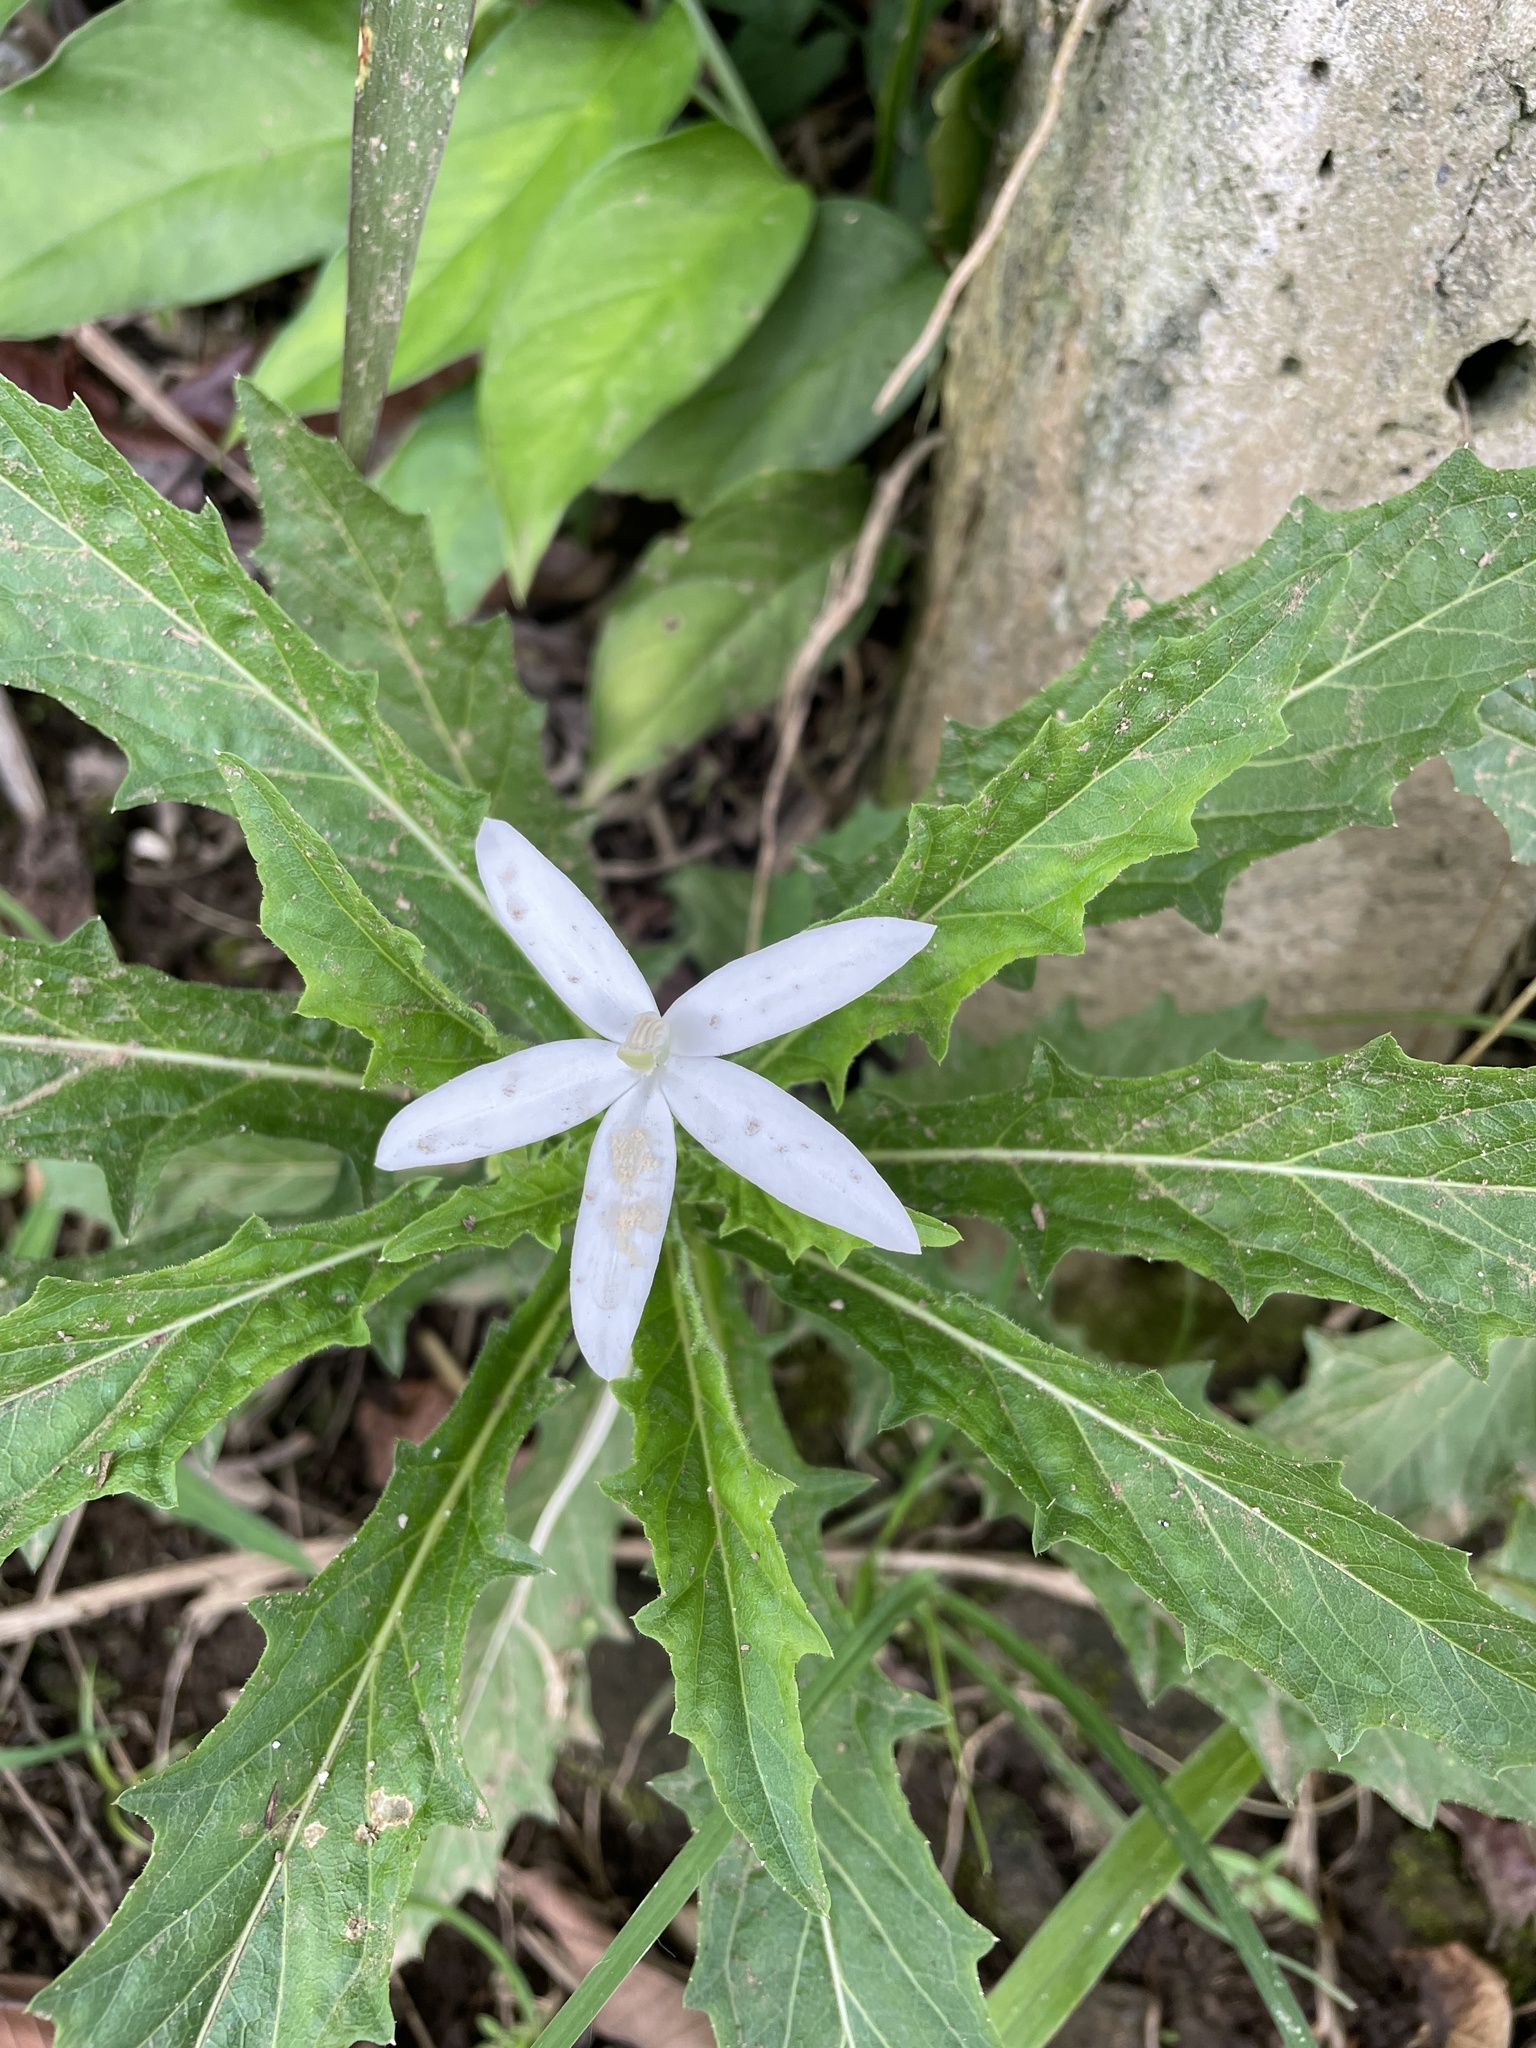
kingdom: Plantae
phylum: Tracheophyta
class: Magnoliopsida
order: Asterales
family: Campanulaceae
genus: Hippobroma
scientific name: Hippobroma longiflora
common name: Madamfate
